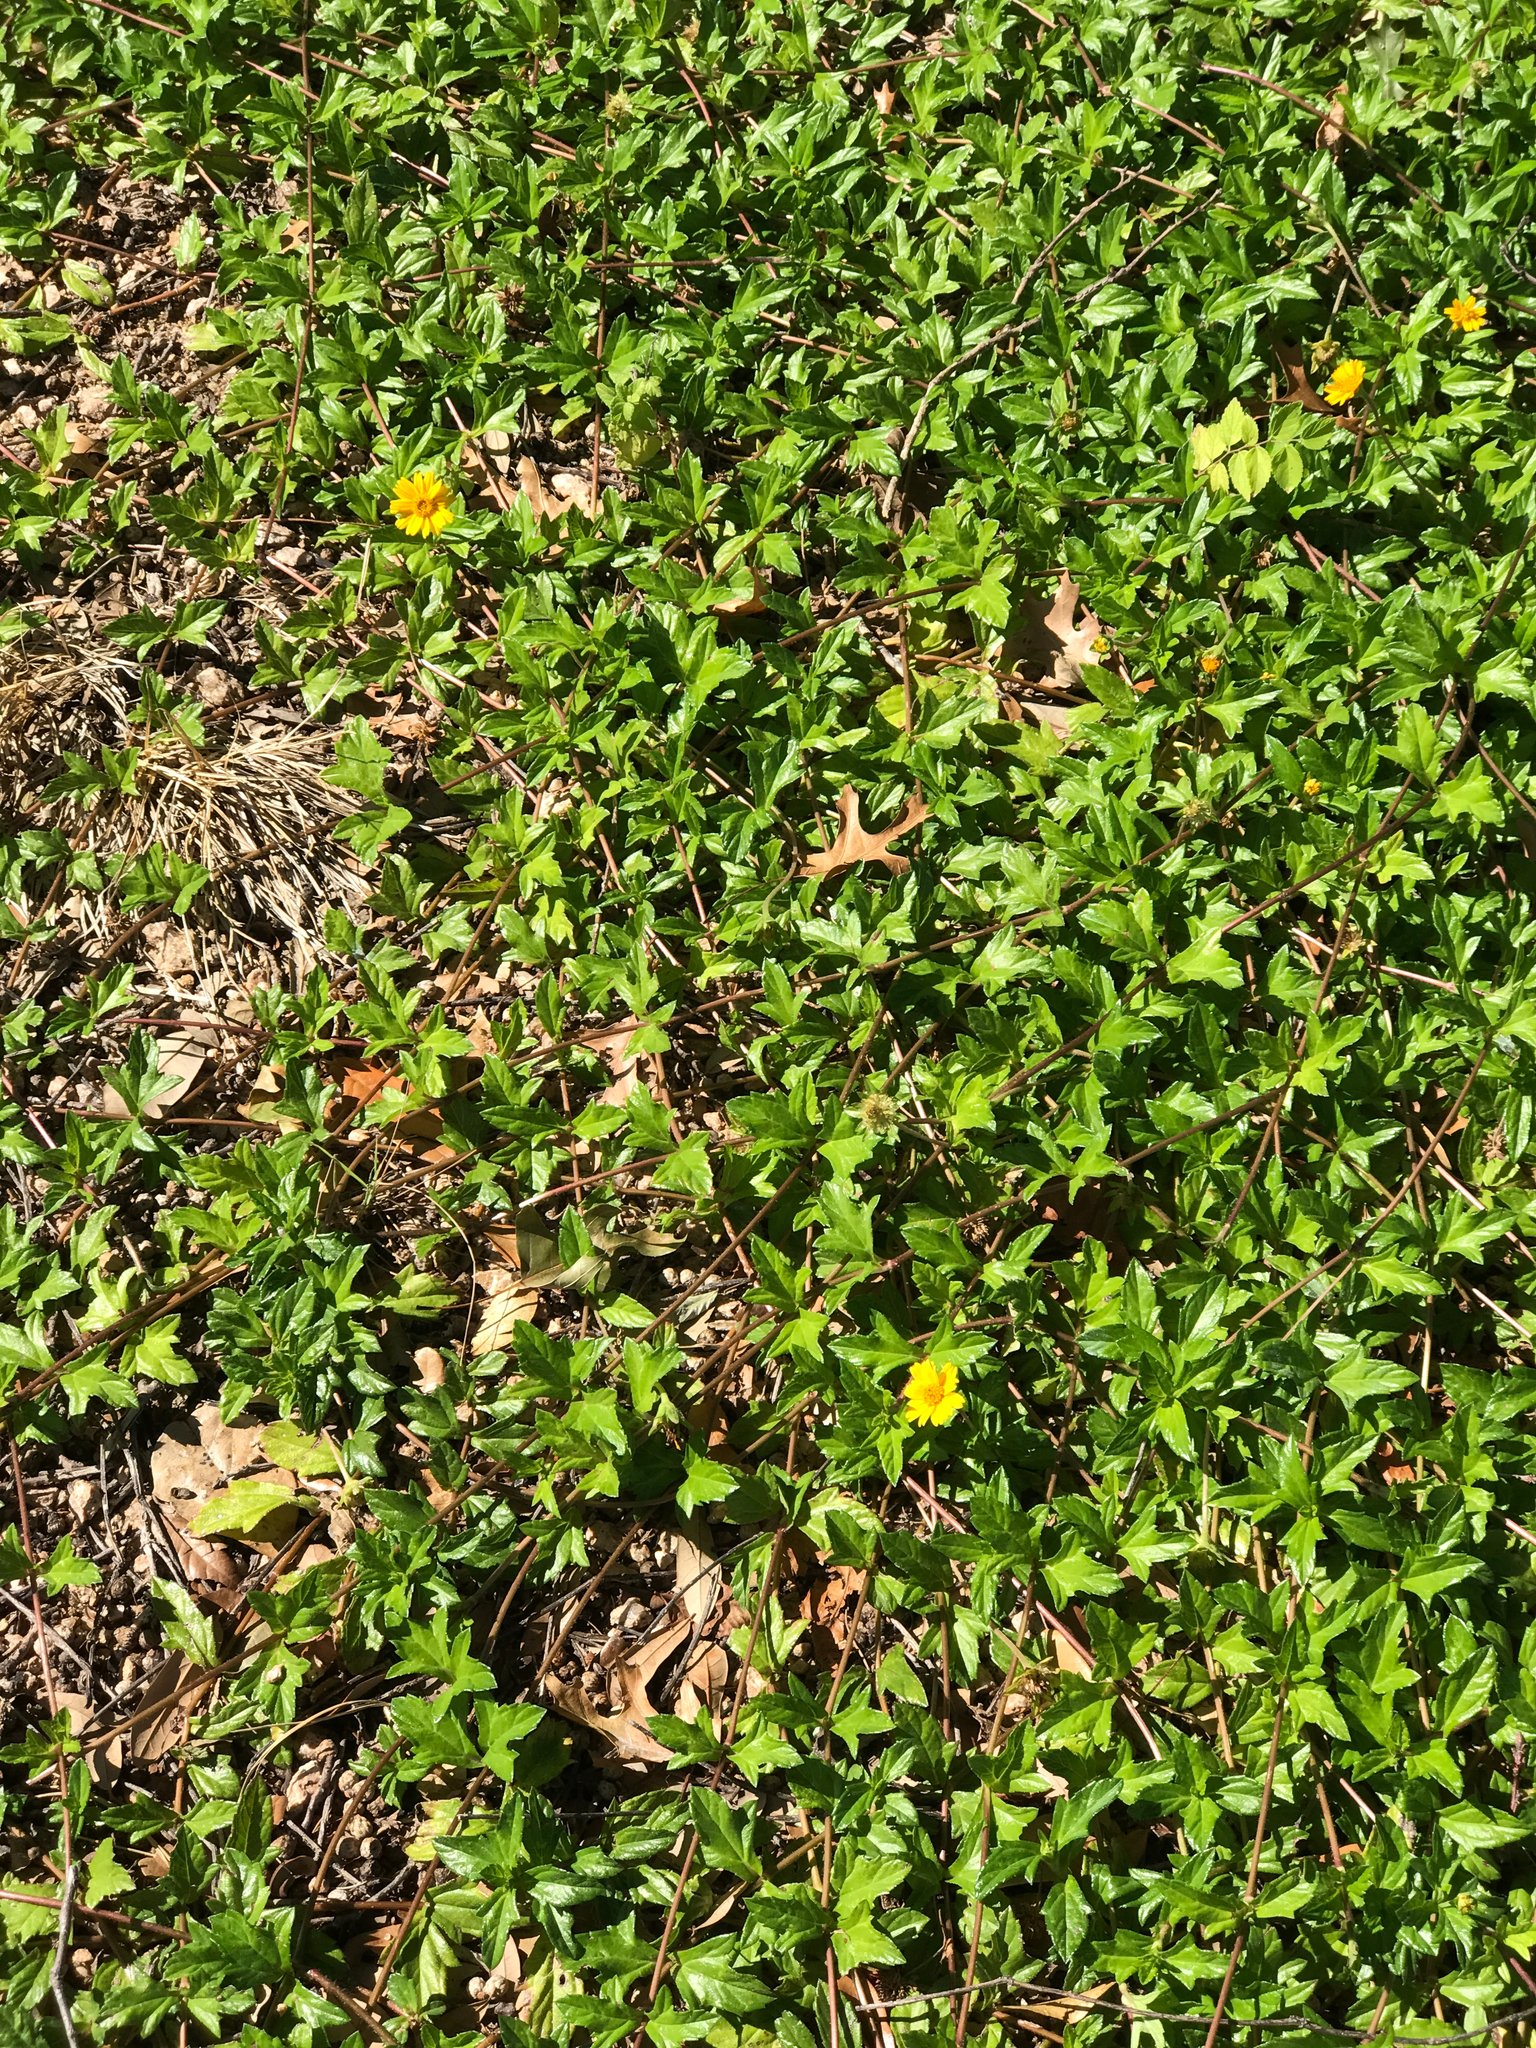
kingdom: Plantae
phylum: Tracheophyta
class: Magnoliopsida
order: Asterales
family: Asteraceae
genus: Sphagneticola
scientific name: Sphagneticola trilobata
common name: Bay biscayne creeping-oxeye
